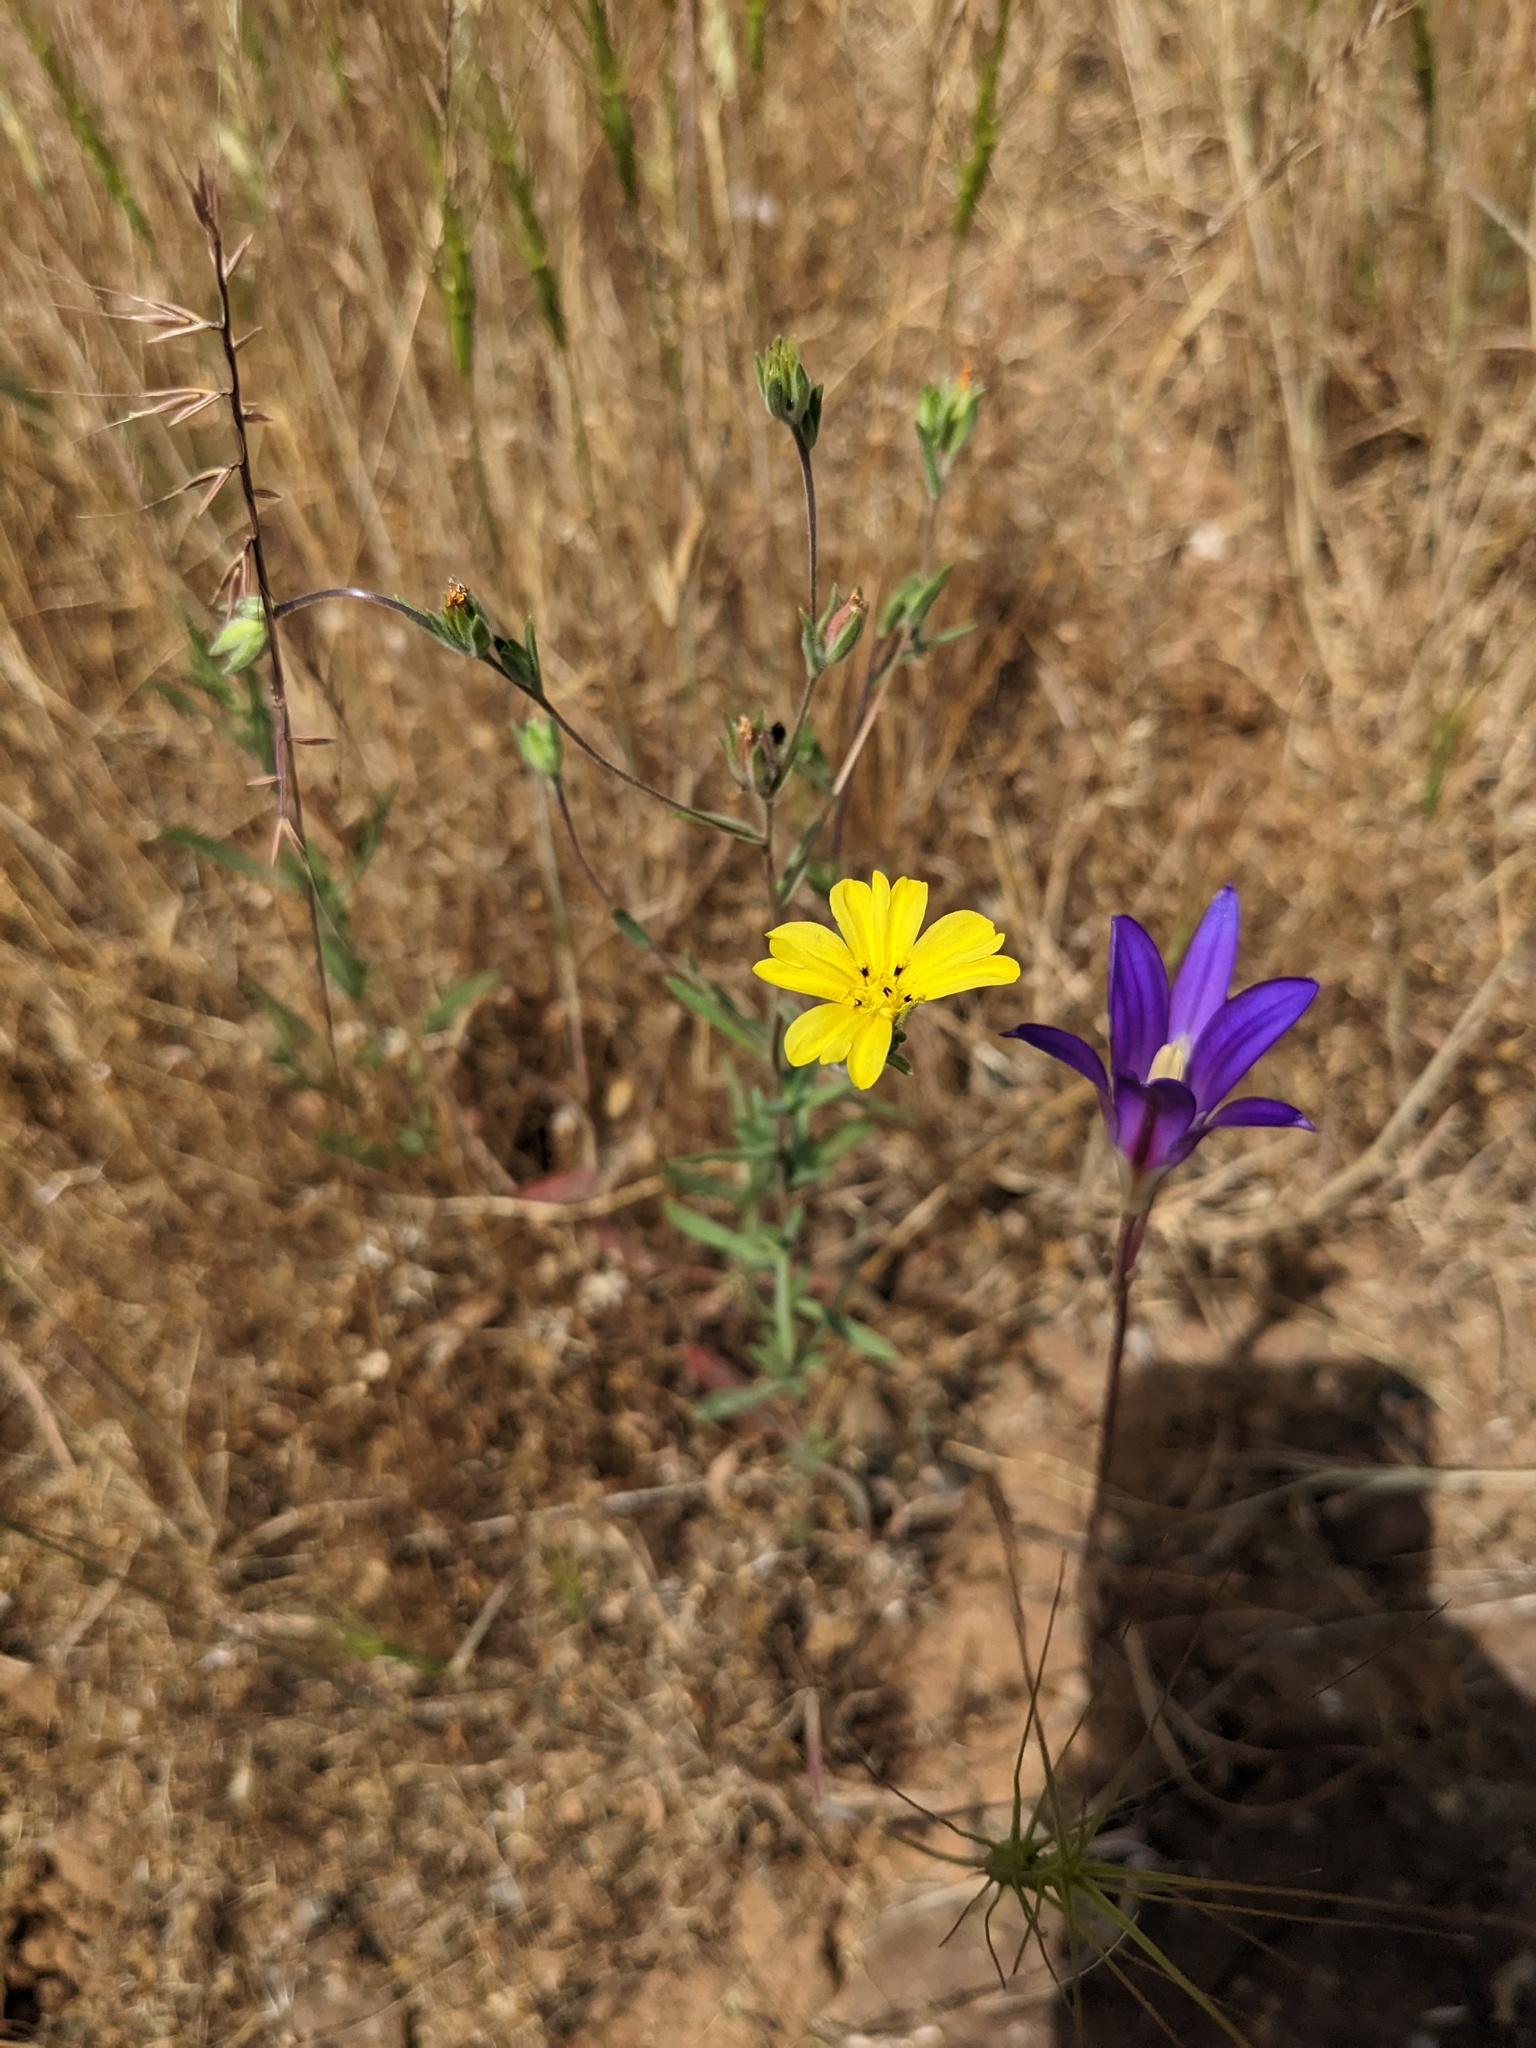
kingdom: Plantae
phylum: Tracheophyta
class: Magnoliopsida
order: Asterales
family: Asteraceae
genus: Lagophylla
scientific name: Lagophylla glandulosa
